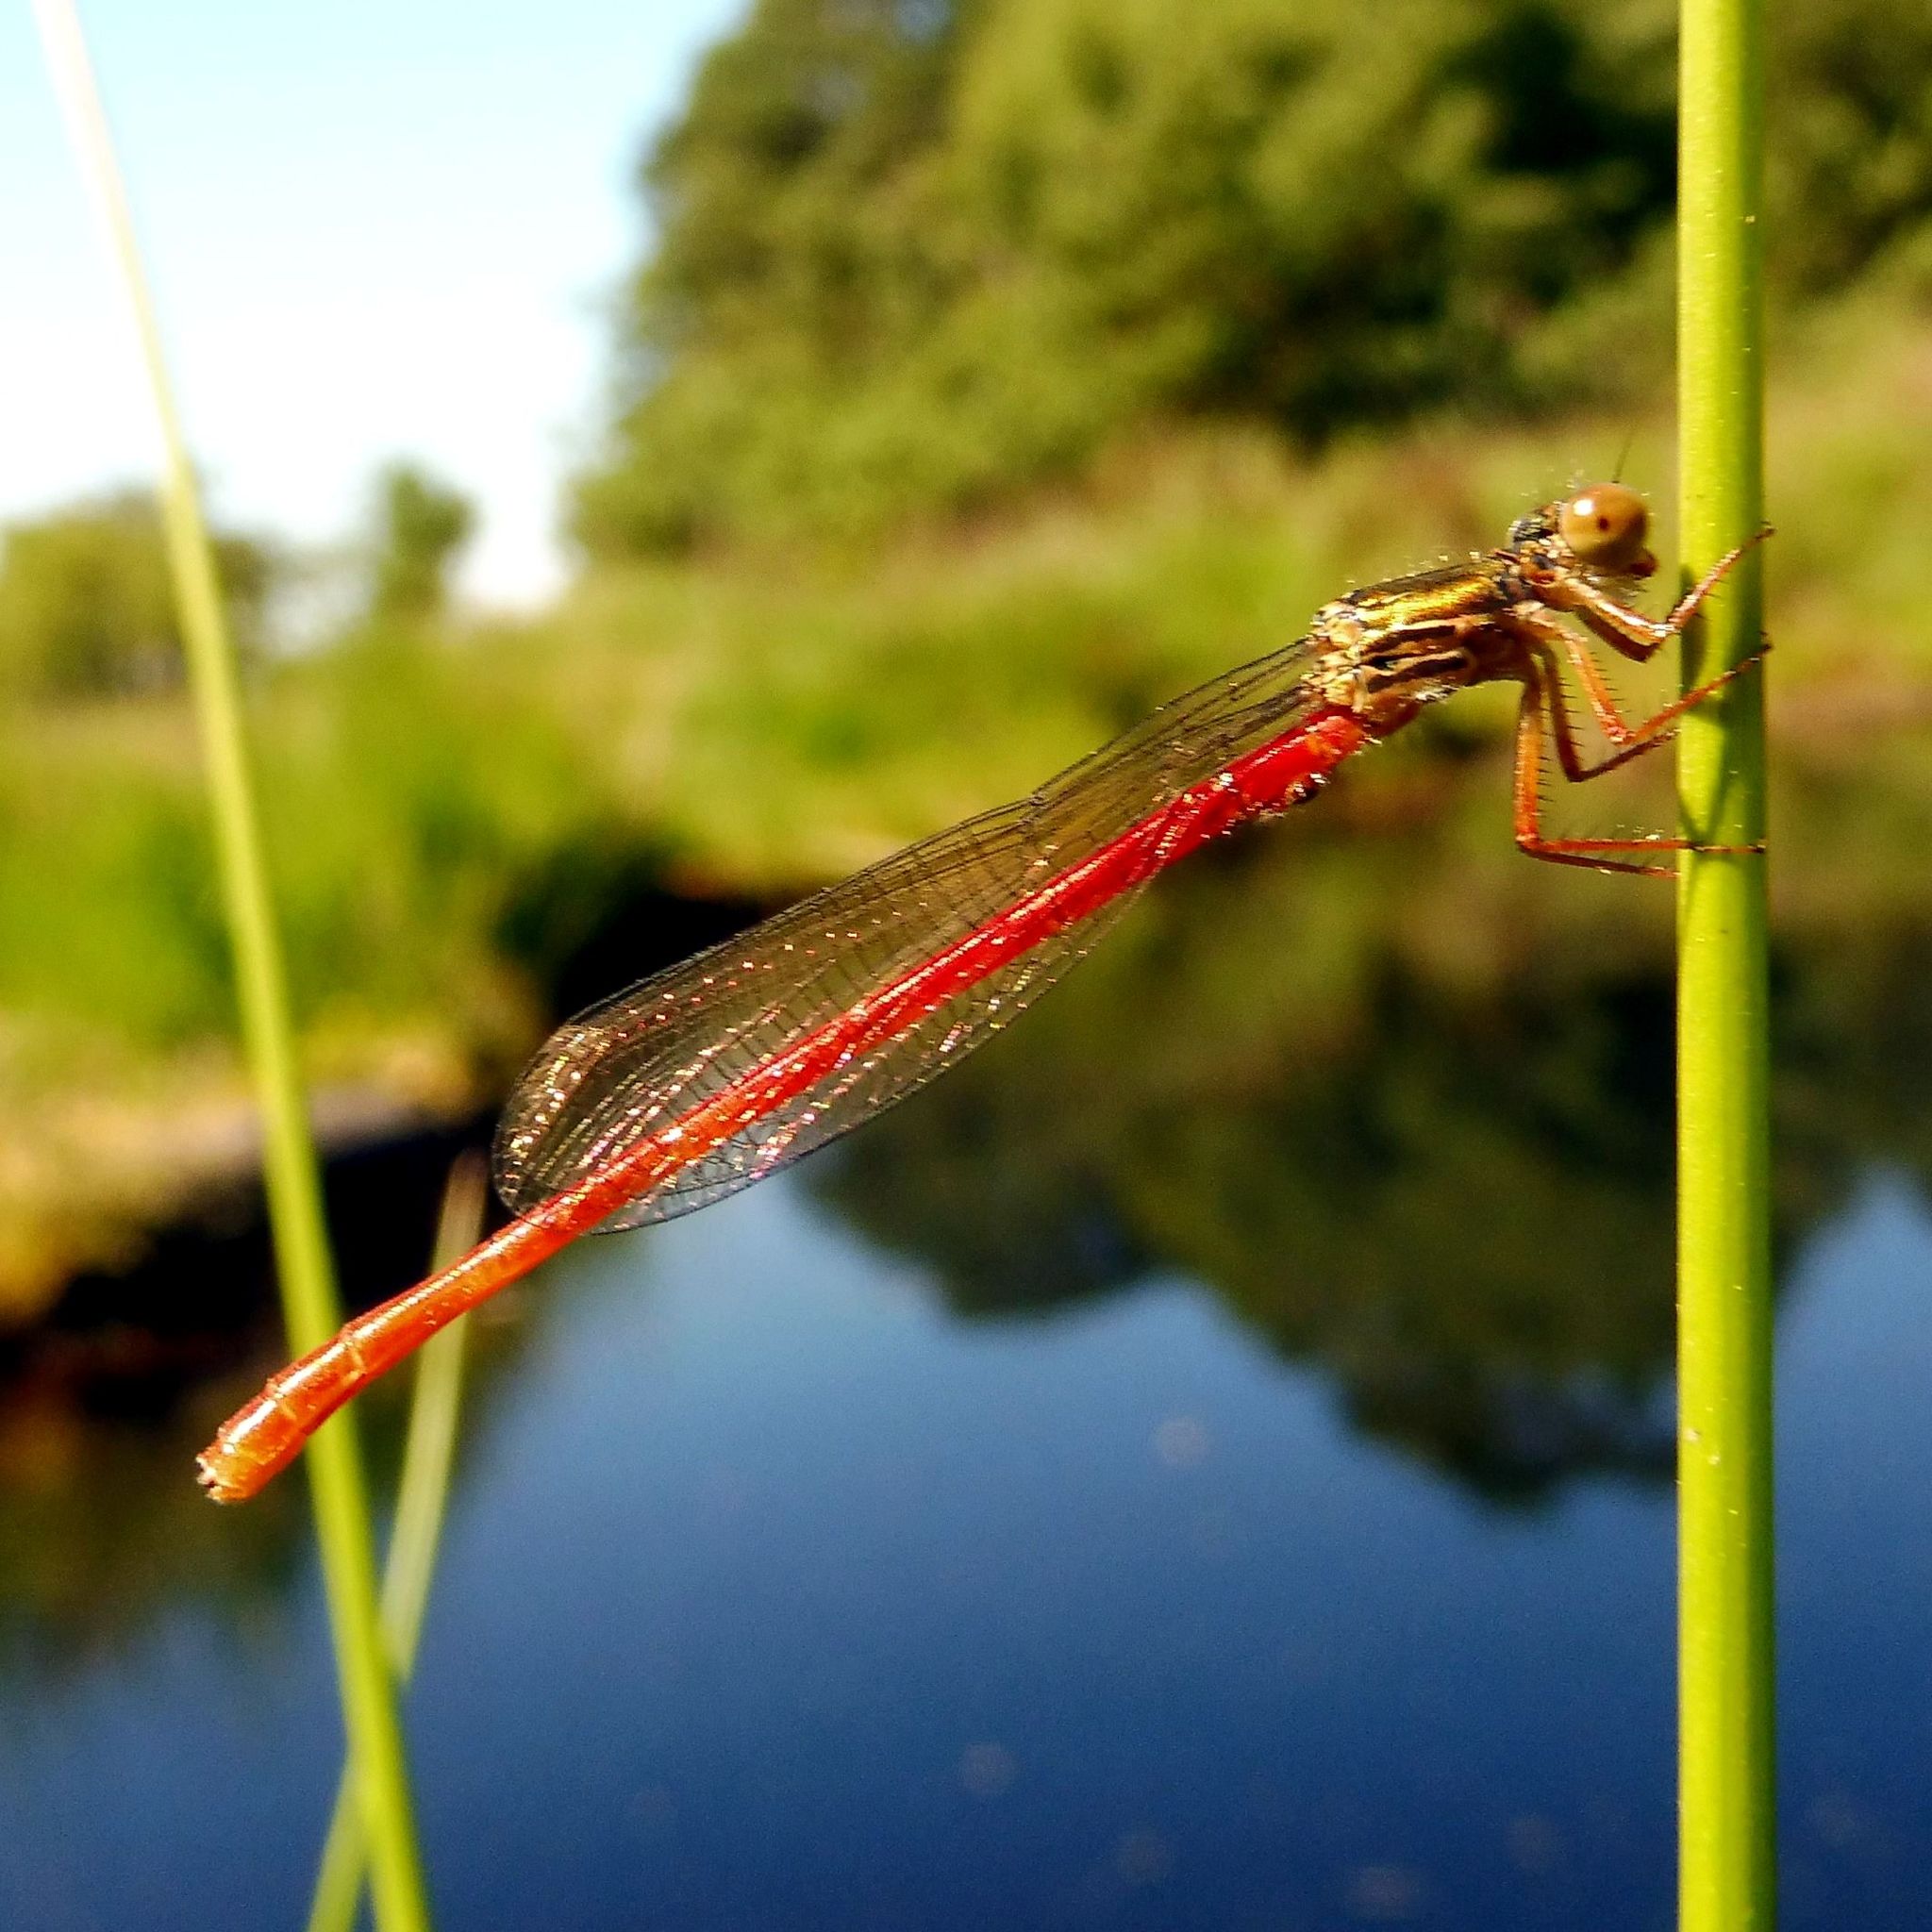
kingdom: Animalia
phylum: Arthropoda
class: Insecta
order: Odonata
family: Coenagrionidae
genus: Ceriagrion
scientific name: Ceriagrion tenellum
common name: Small red damselfly
